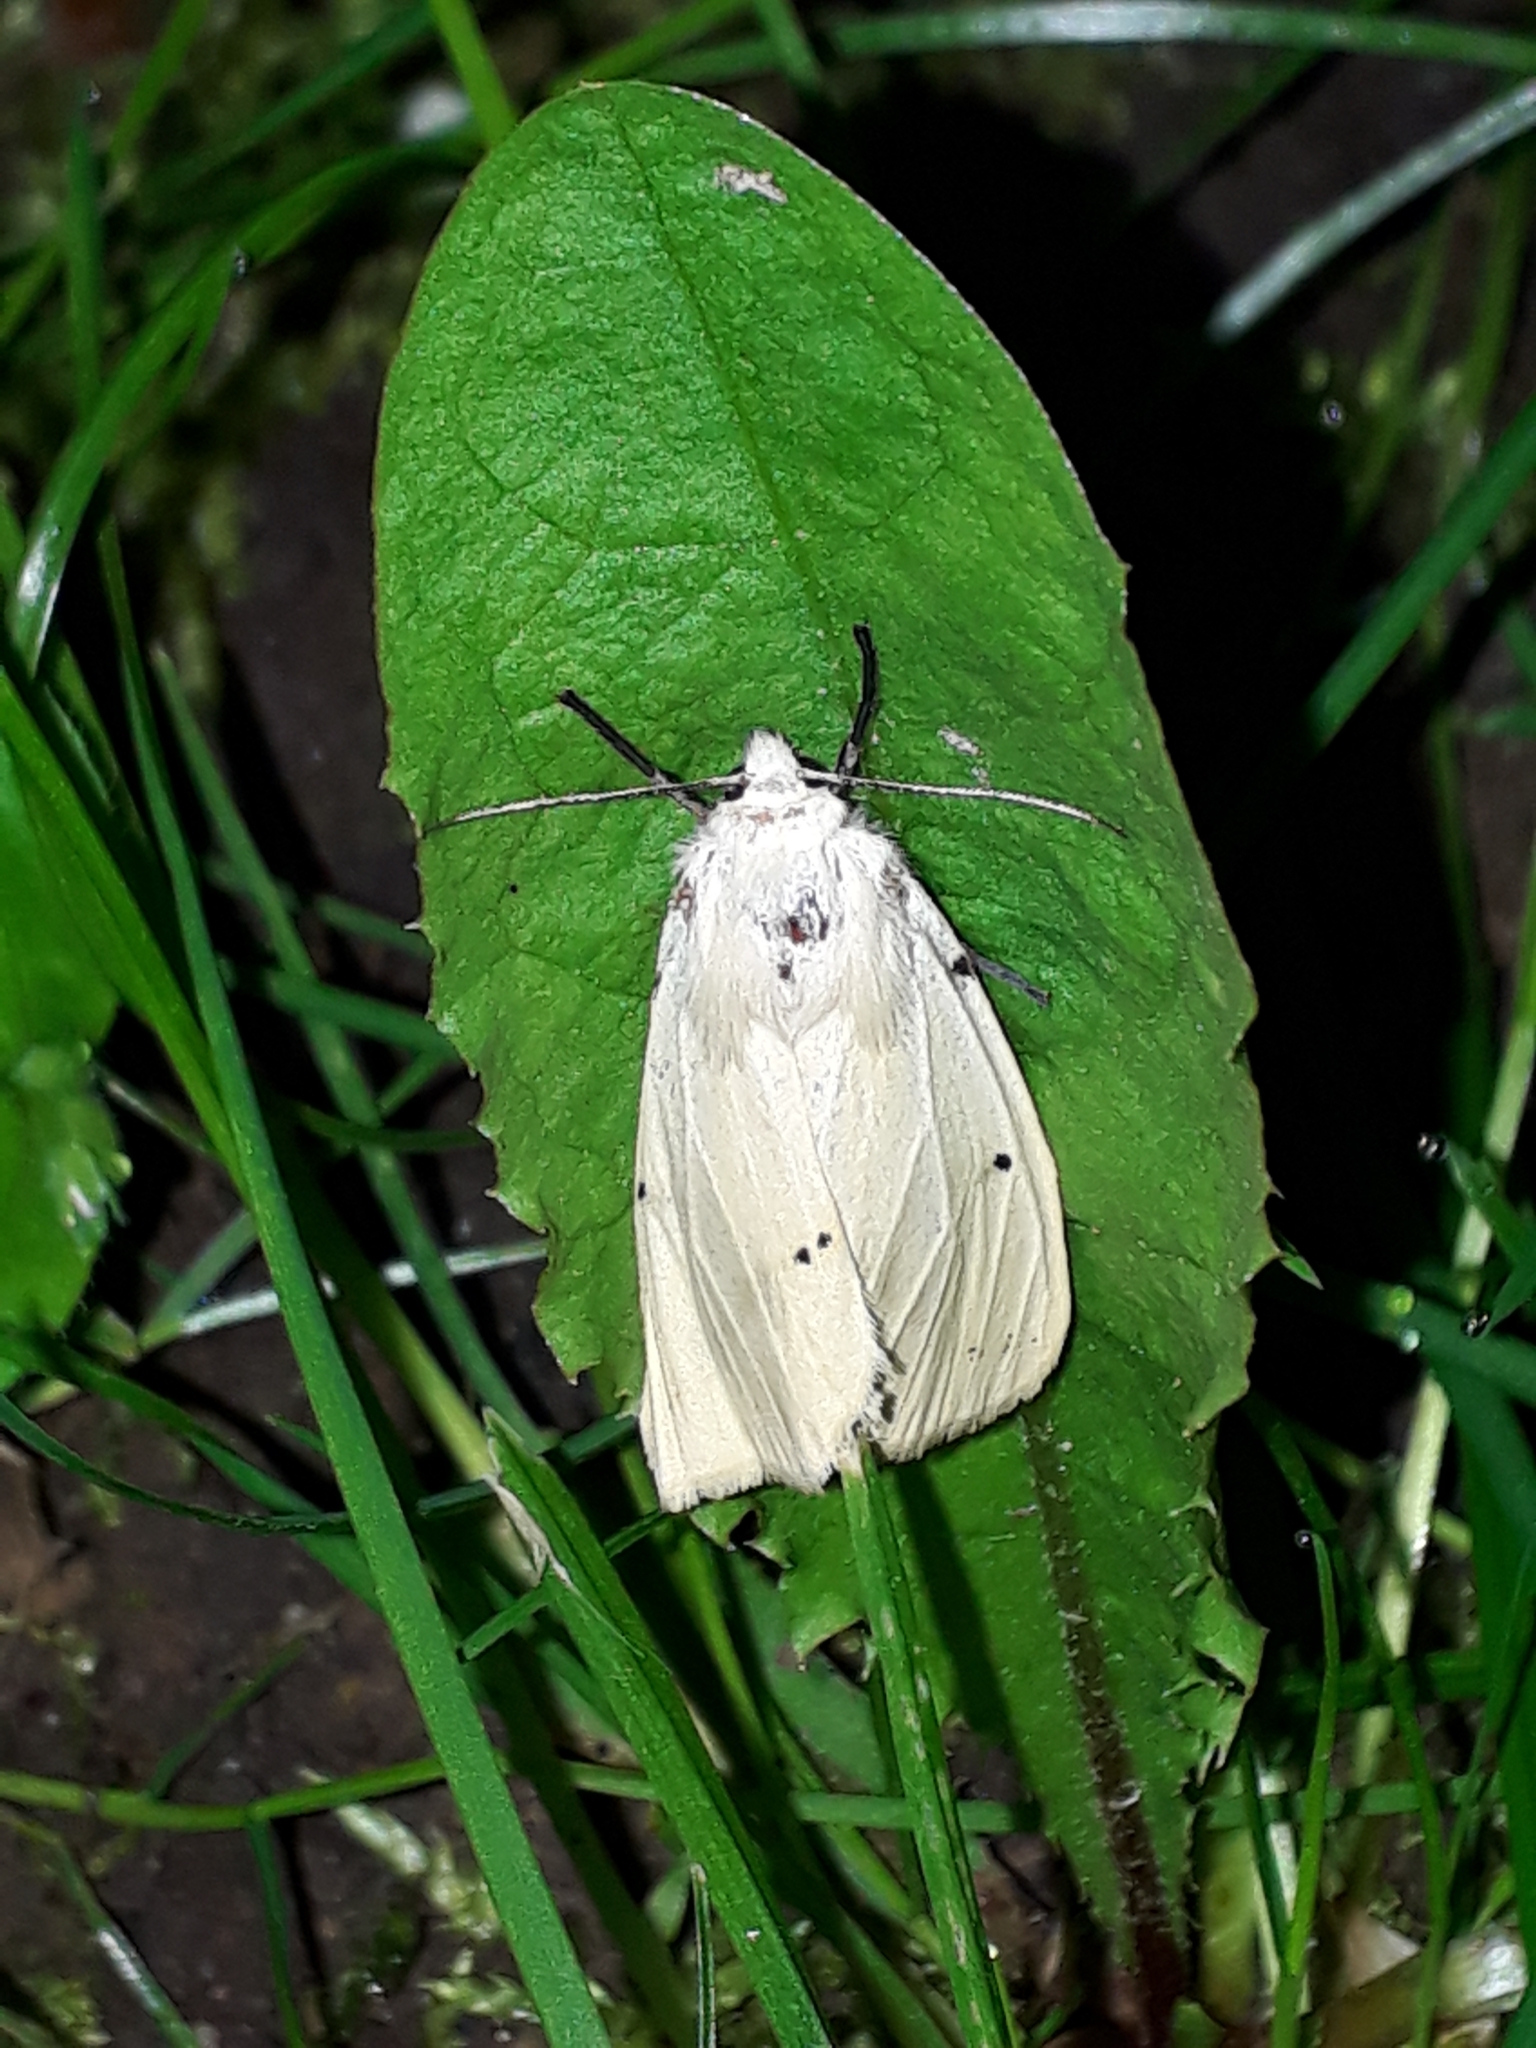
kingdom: Animalia
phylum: Arthropoda
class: Insecta
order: Lepidoptera
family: Erebidae
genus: Spilarctia
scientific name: Spilarctia lutea
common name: Buff ermine
